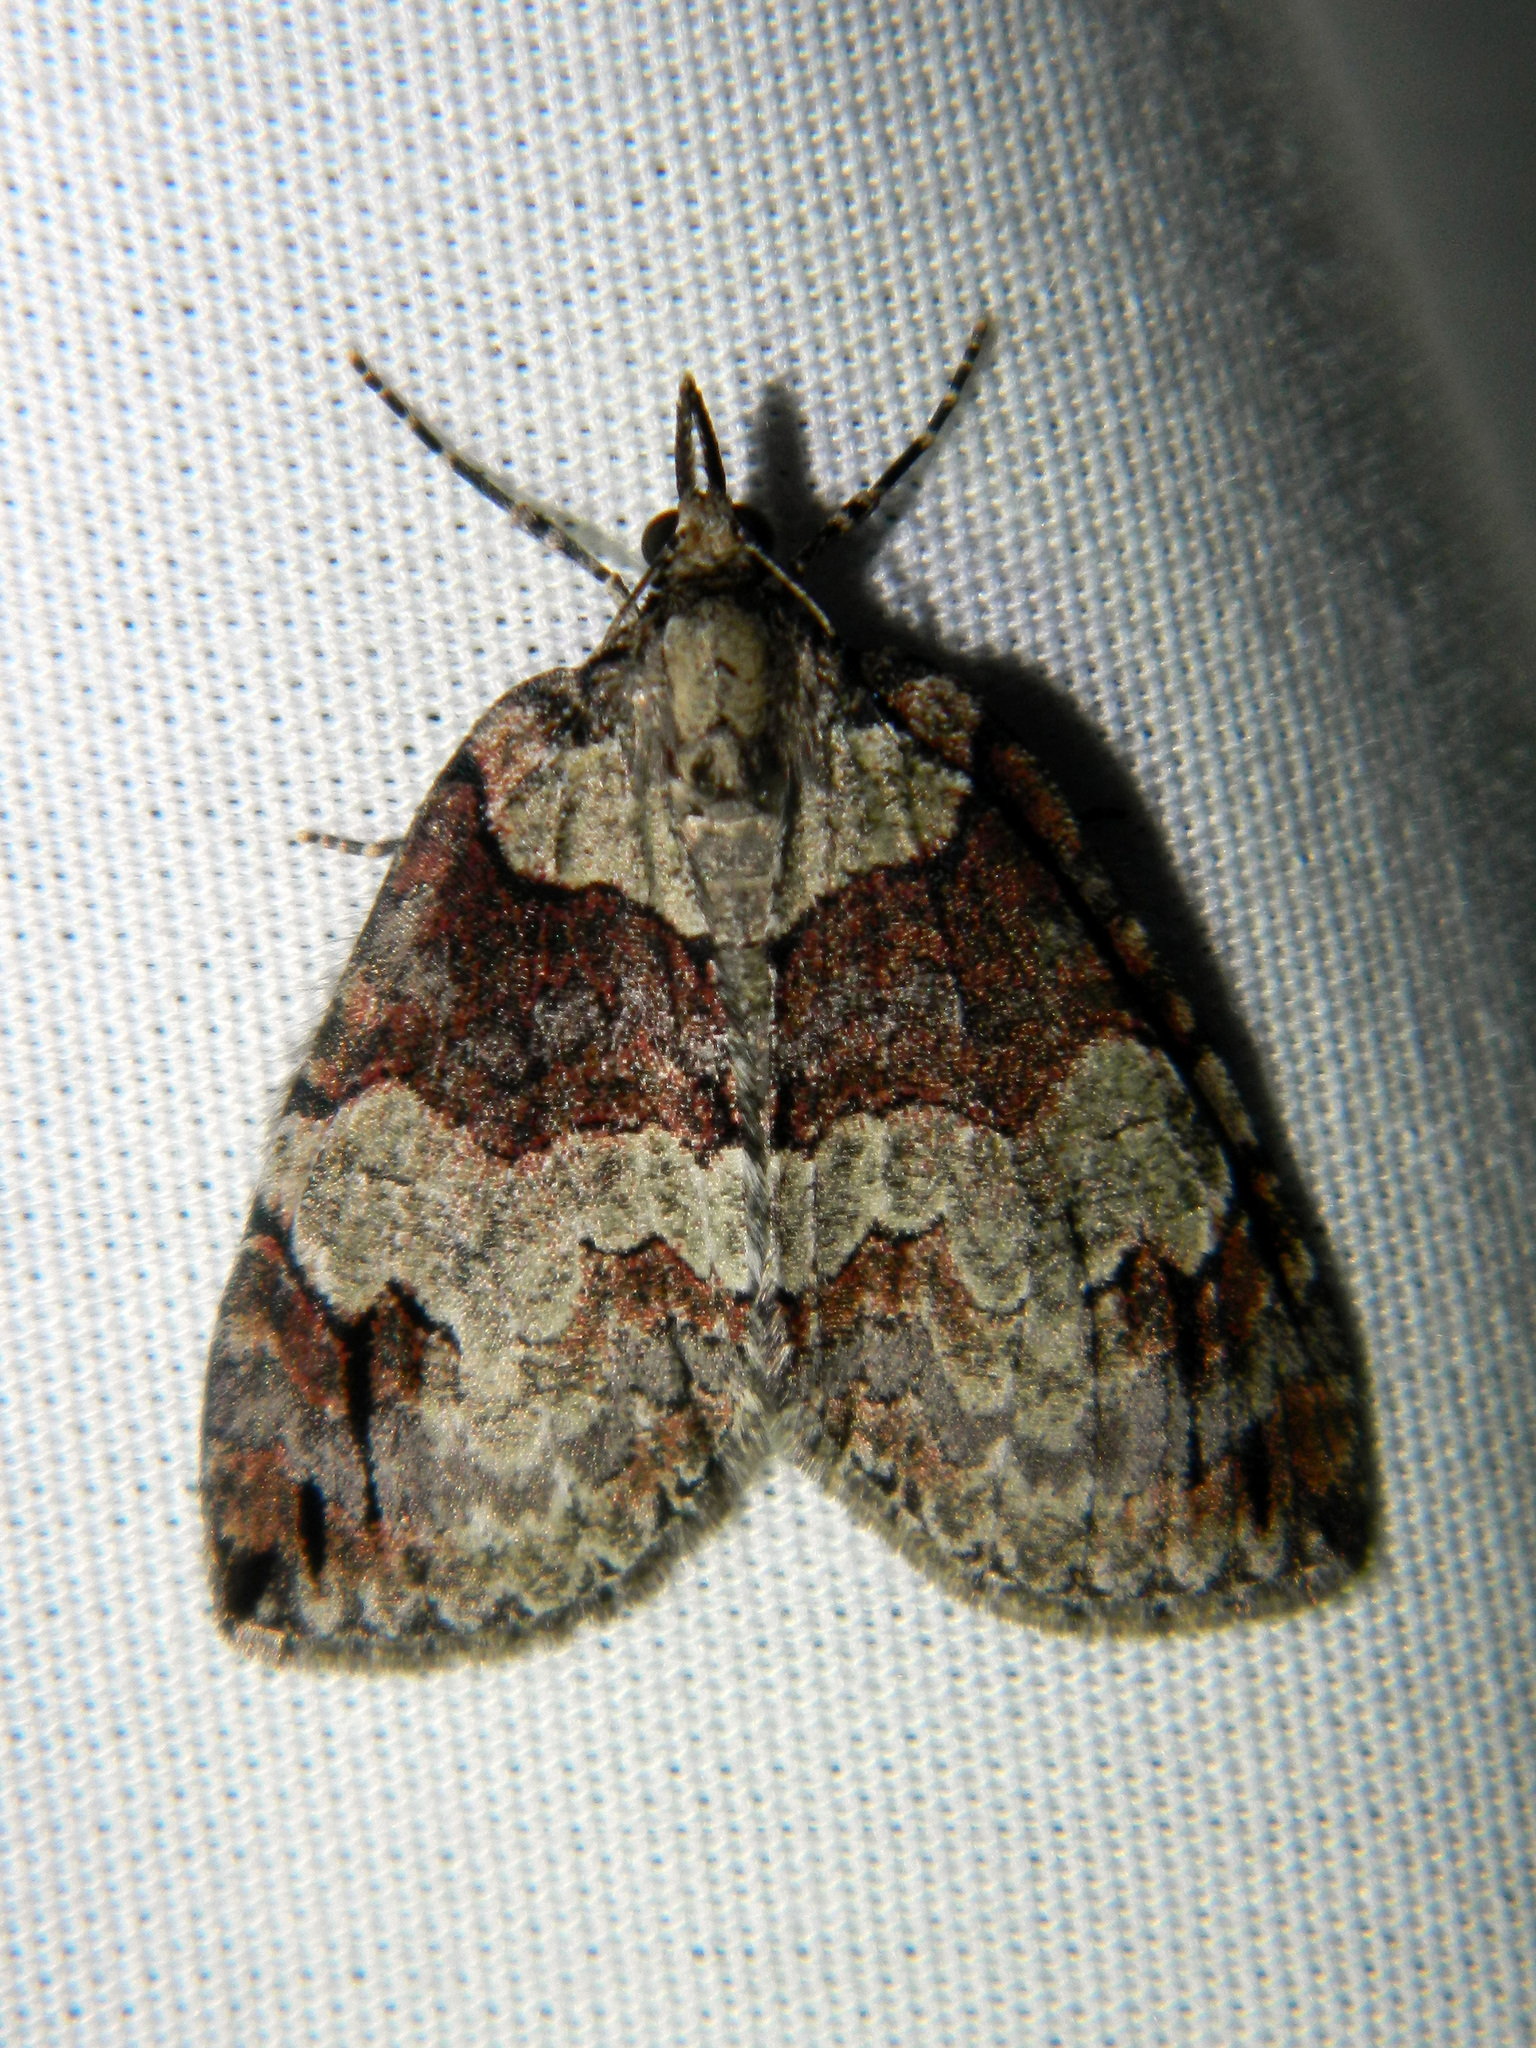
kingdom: Animalia
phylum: Arthropoda
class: Insecta
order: Lepidoptera
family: Geometridae
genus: Hydriomena
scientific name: Hydriomena ruberata
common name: Ruddy highflyer
